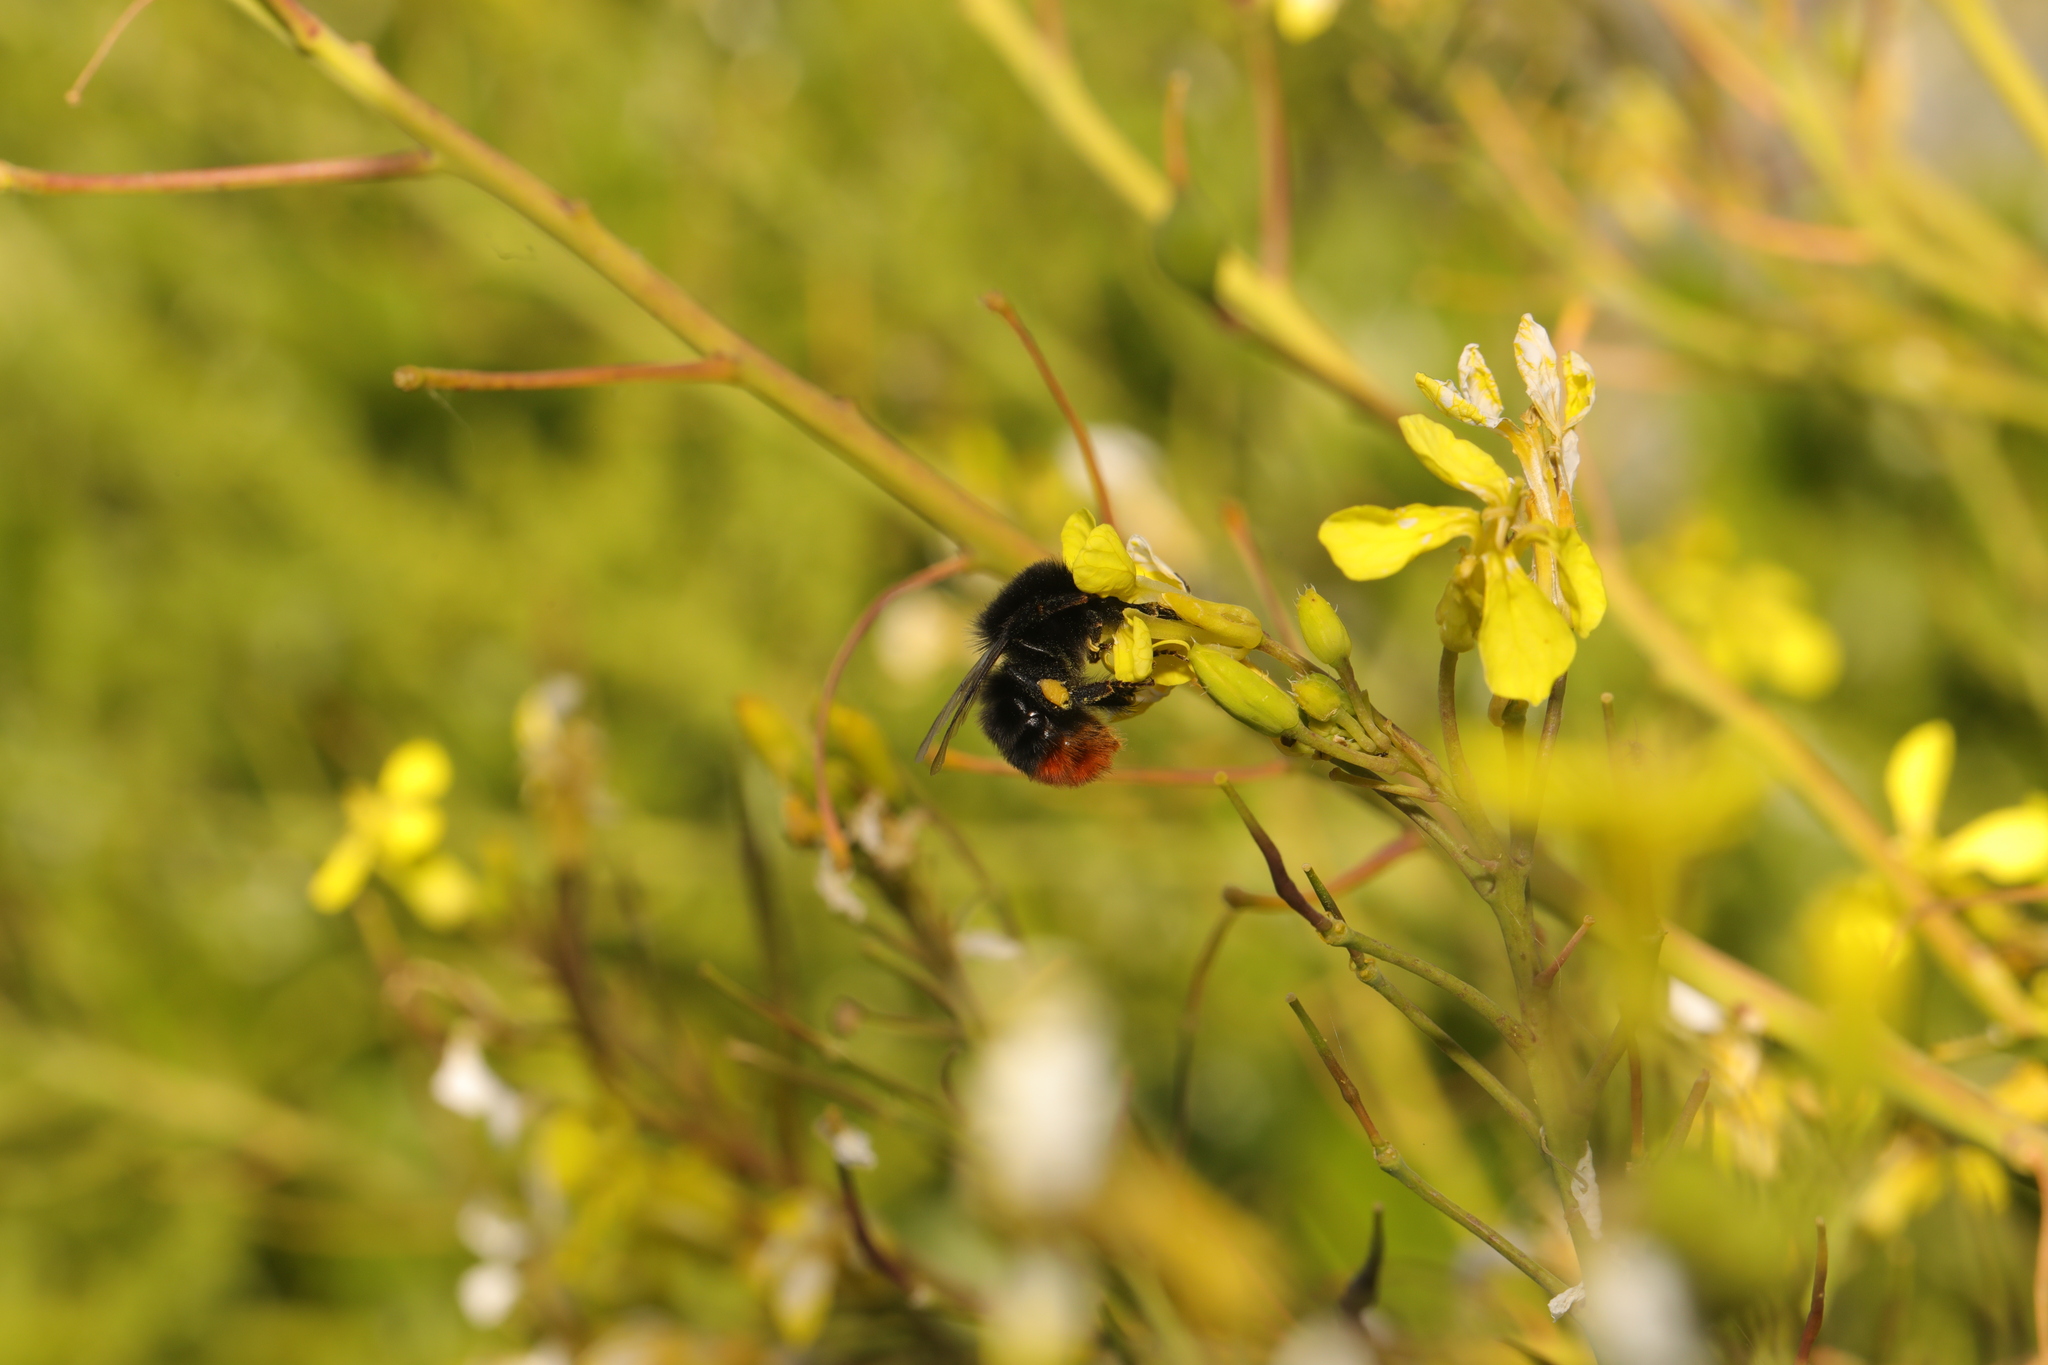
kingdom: Animalia
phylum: Arthropoda
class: Insecta
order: Hymenoptera
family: Apidae
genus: Bombus
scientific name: Bombus lapidarius
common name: Large red-tailed humble-bee
